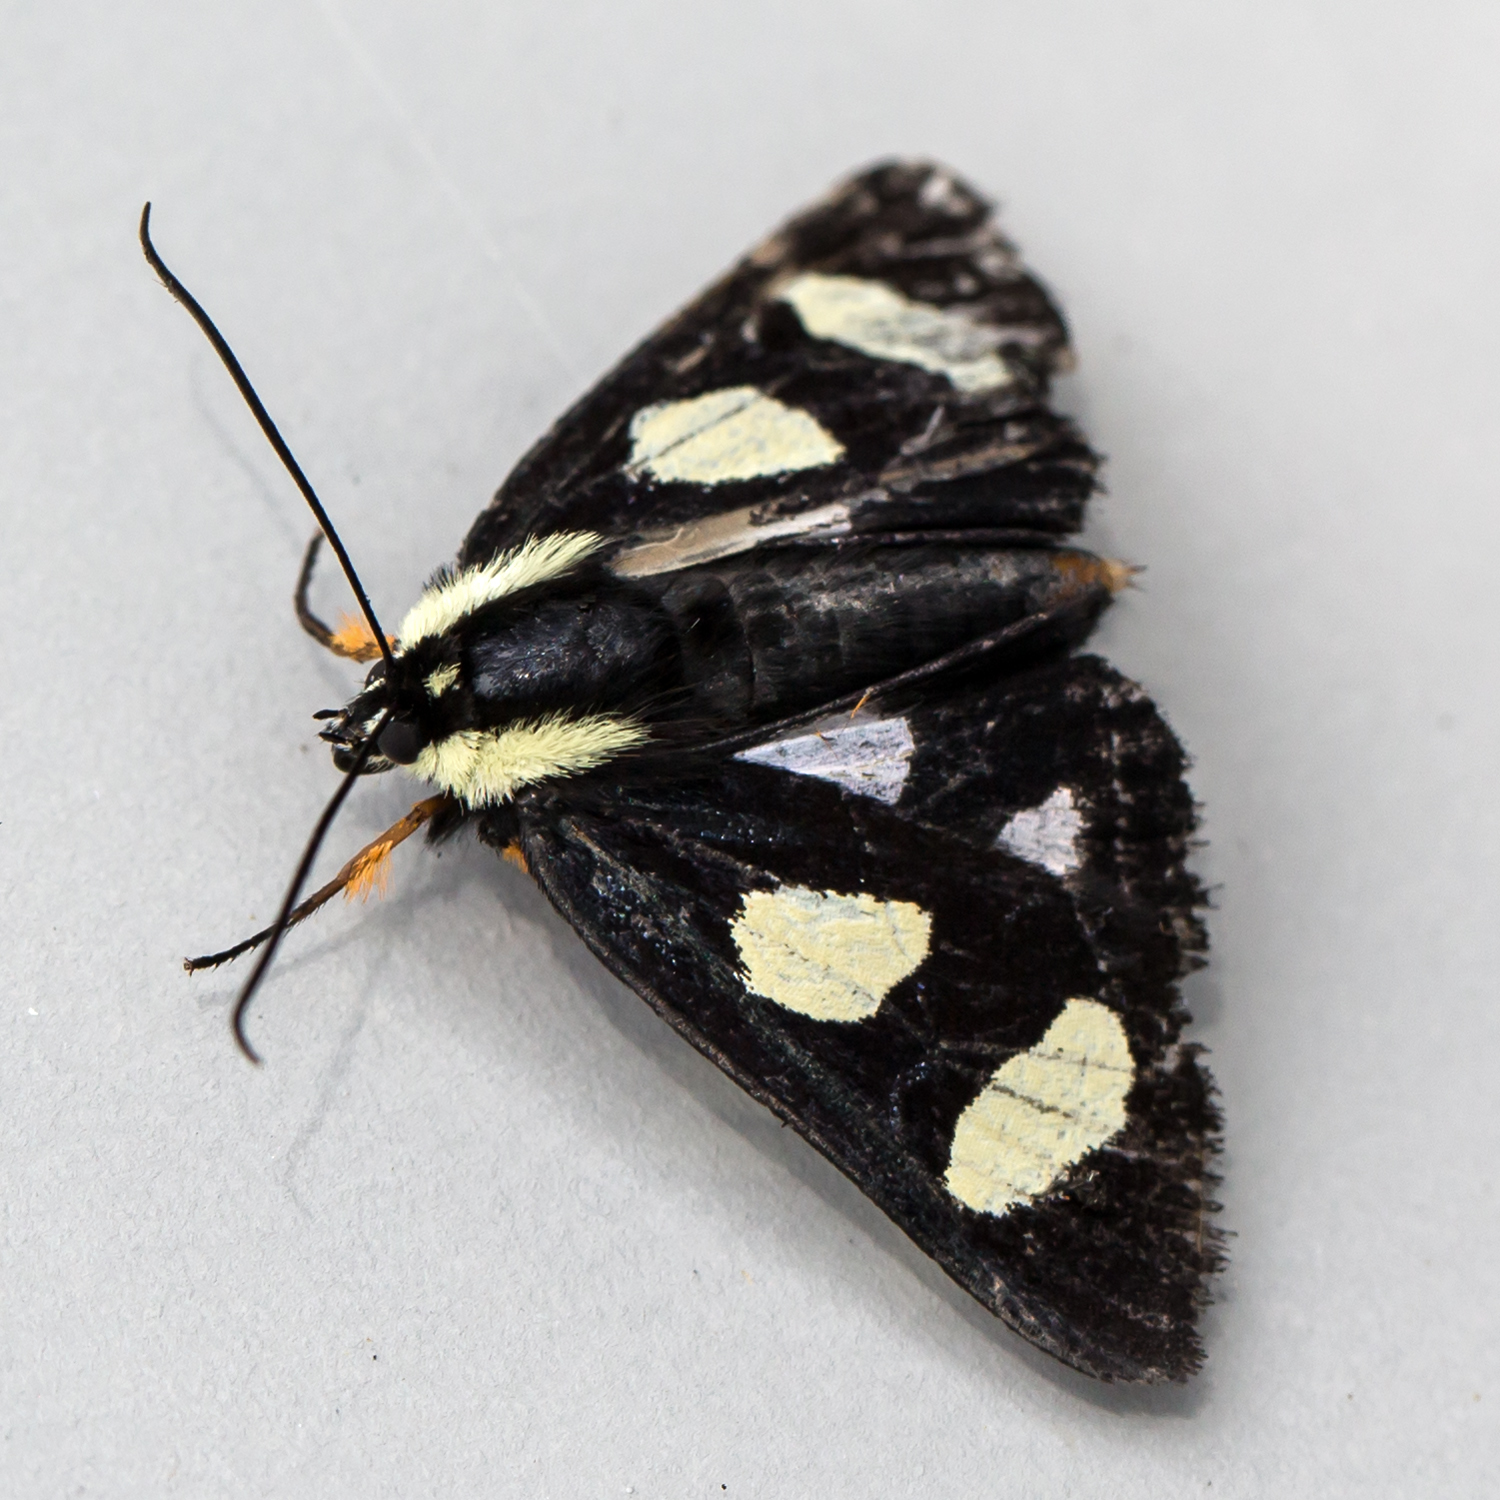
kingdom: Animalia
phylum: Arthropoda
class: Insecta
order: Lepidoptera
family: Noctuidae
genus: Alypia
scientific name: Alypia octomaculata
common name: Eight-spotted forester
